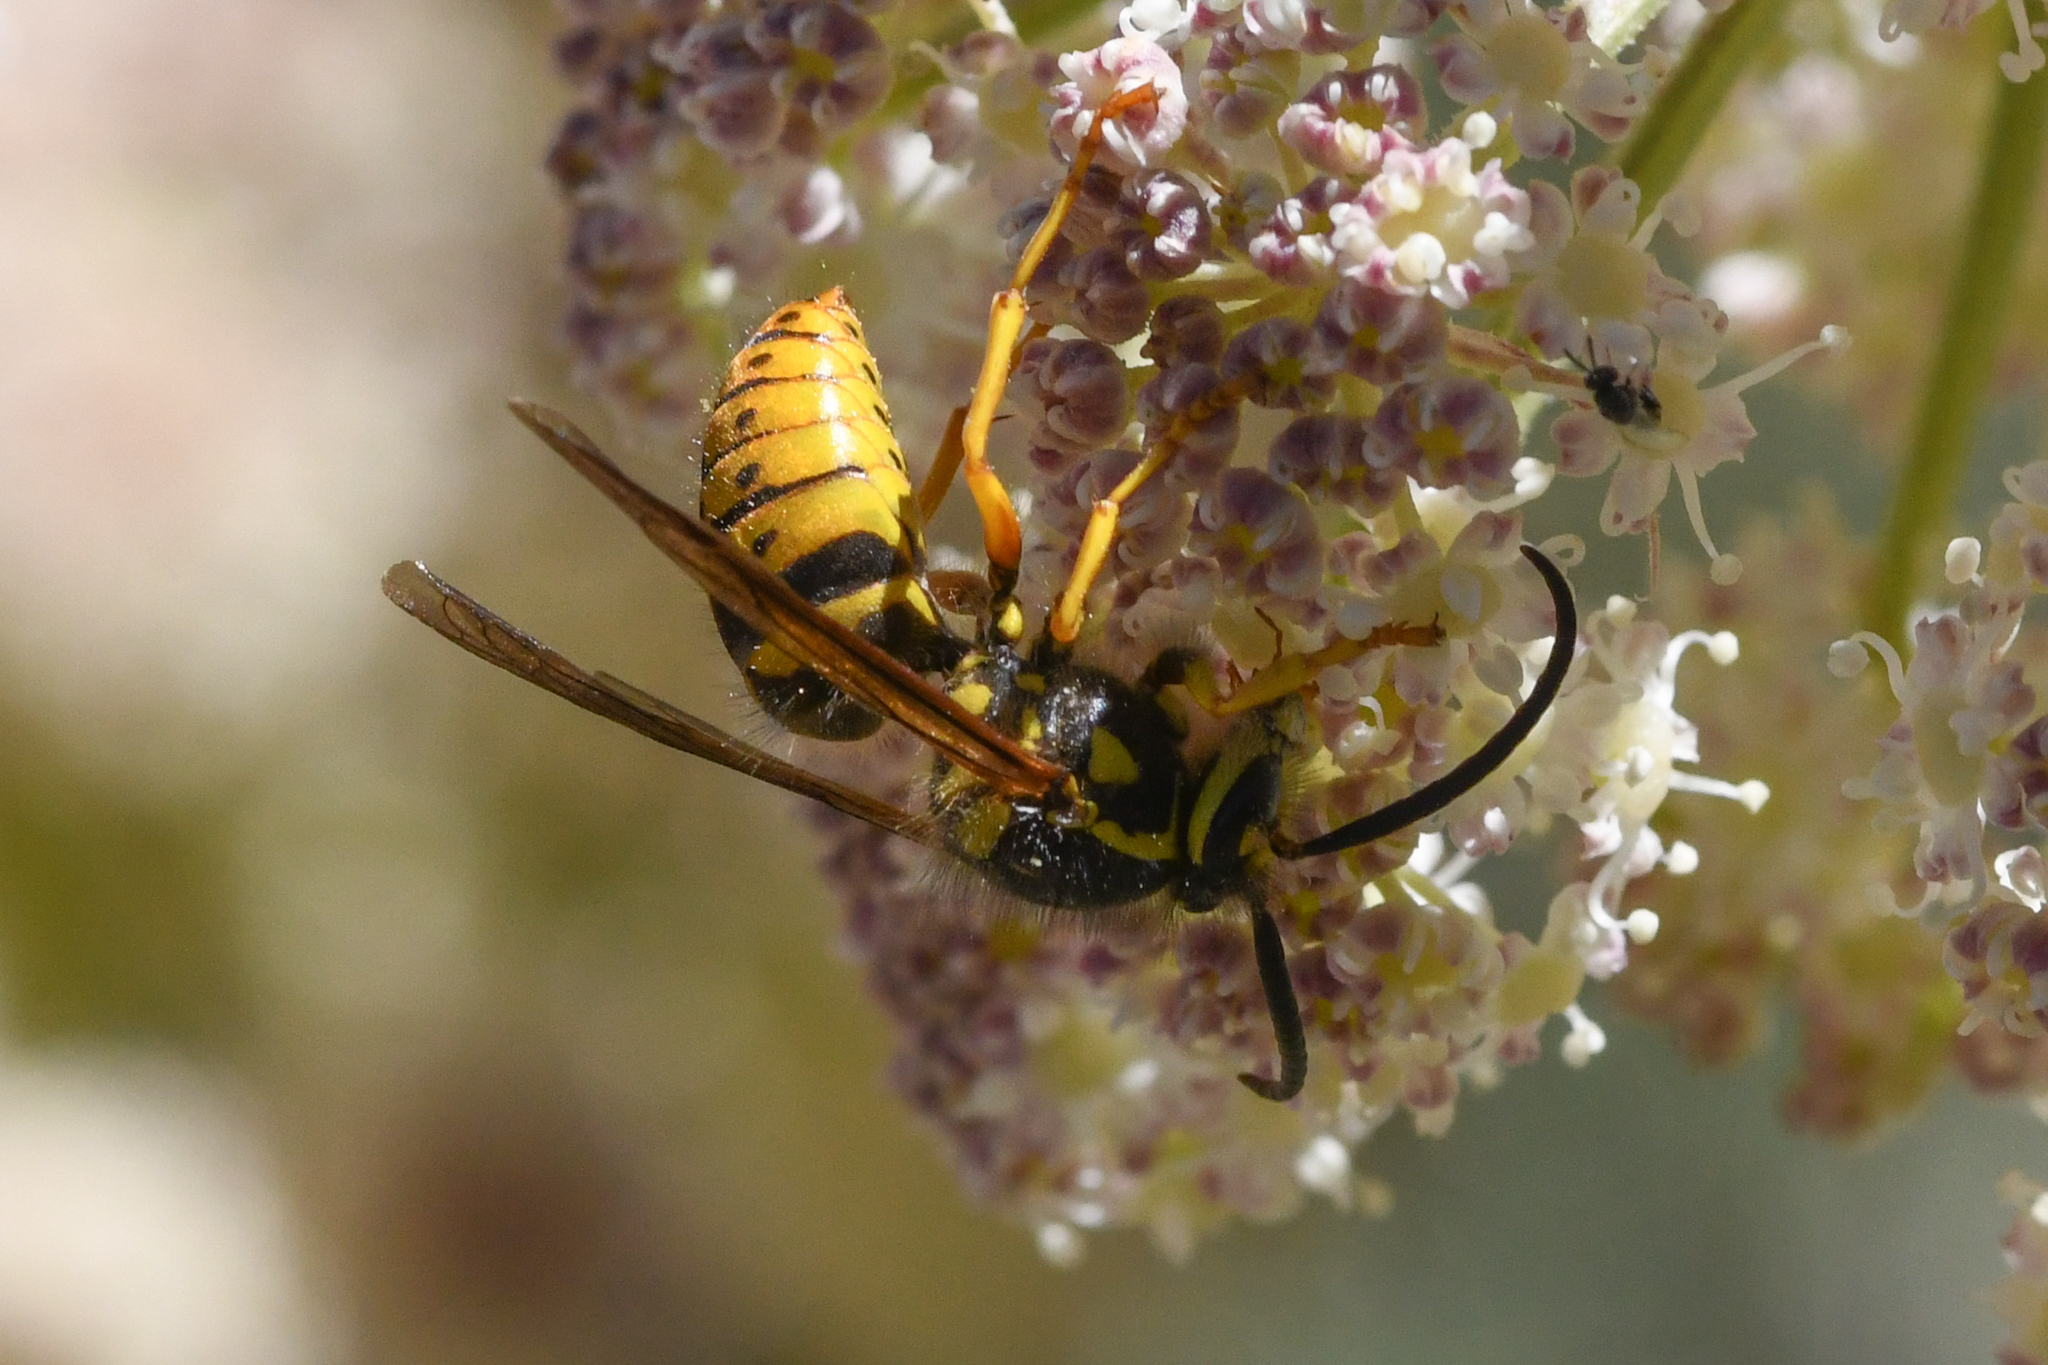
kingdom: Animalia
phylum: Arthropoda
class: Insecta
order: Hymenoptera
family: Vespidae
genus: Dolichovespula
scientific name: Dolichovespula arenaria
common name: Aerial yellowjacket
